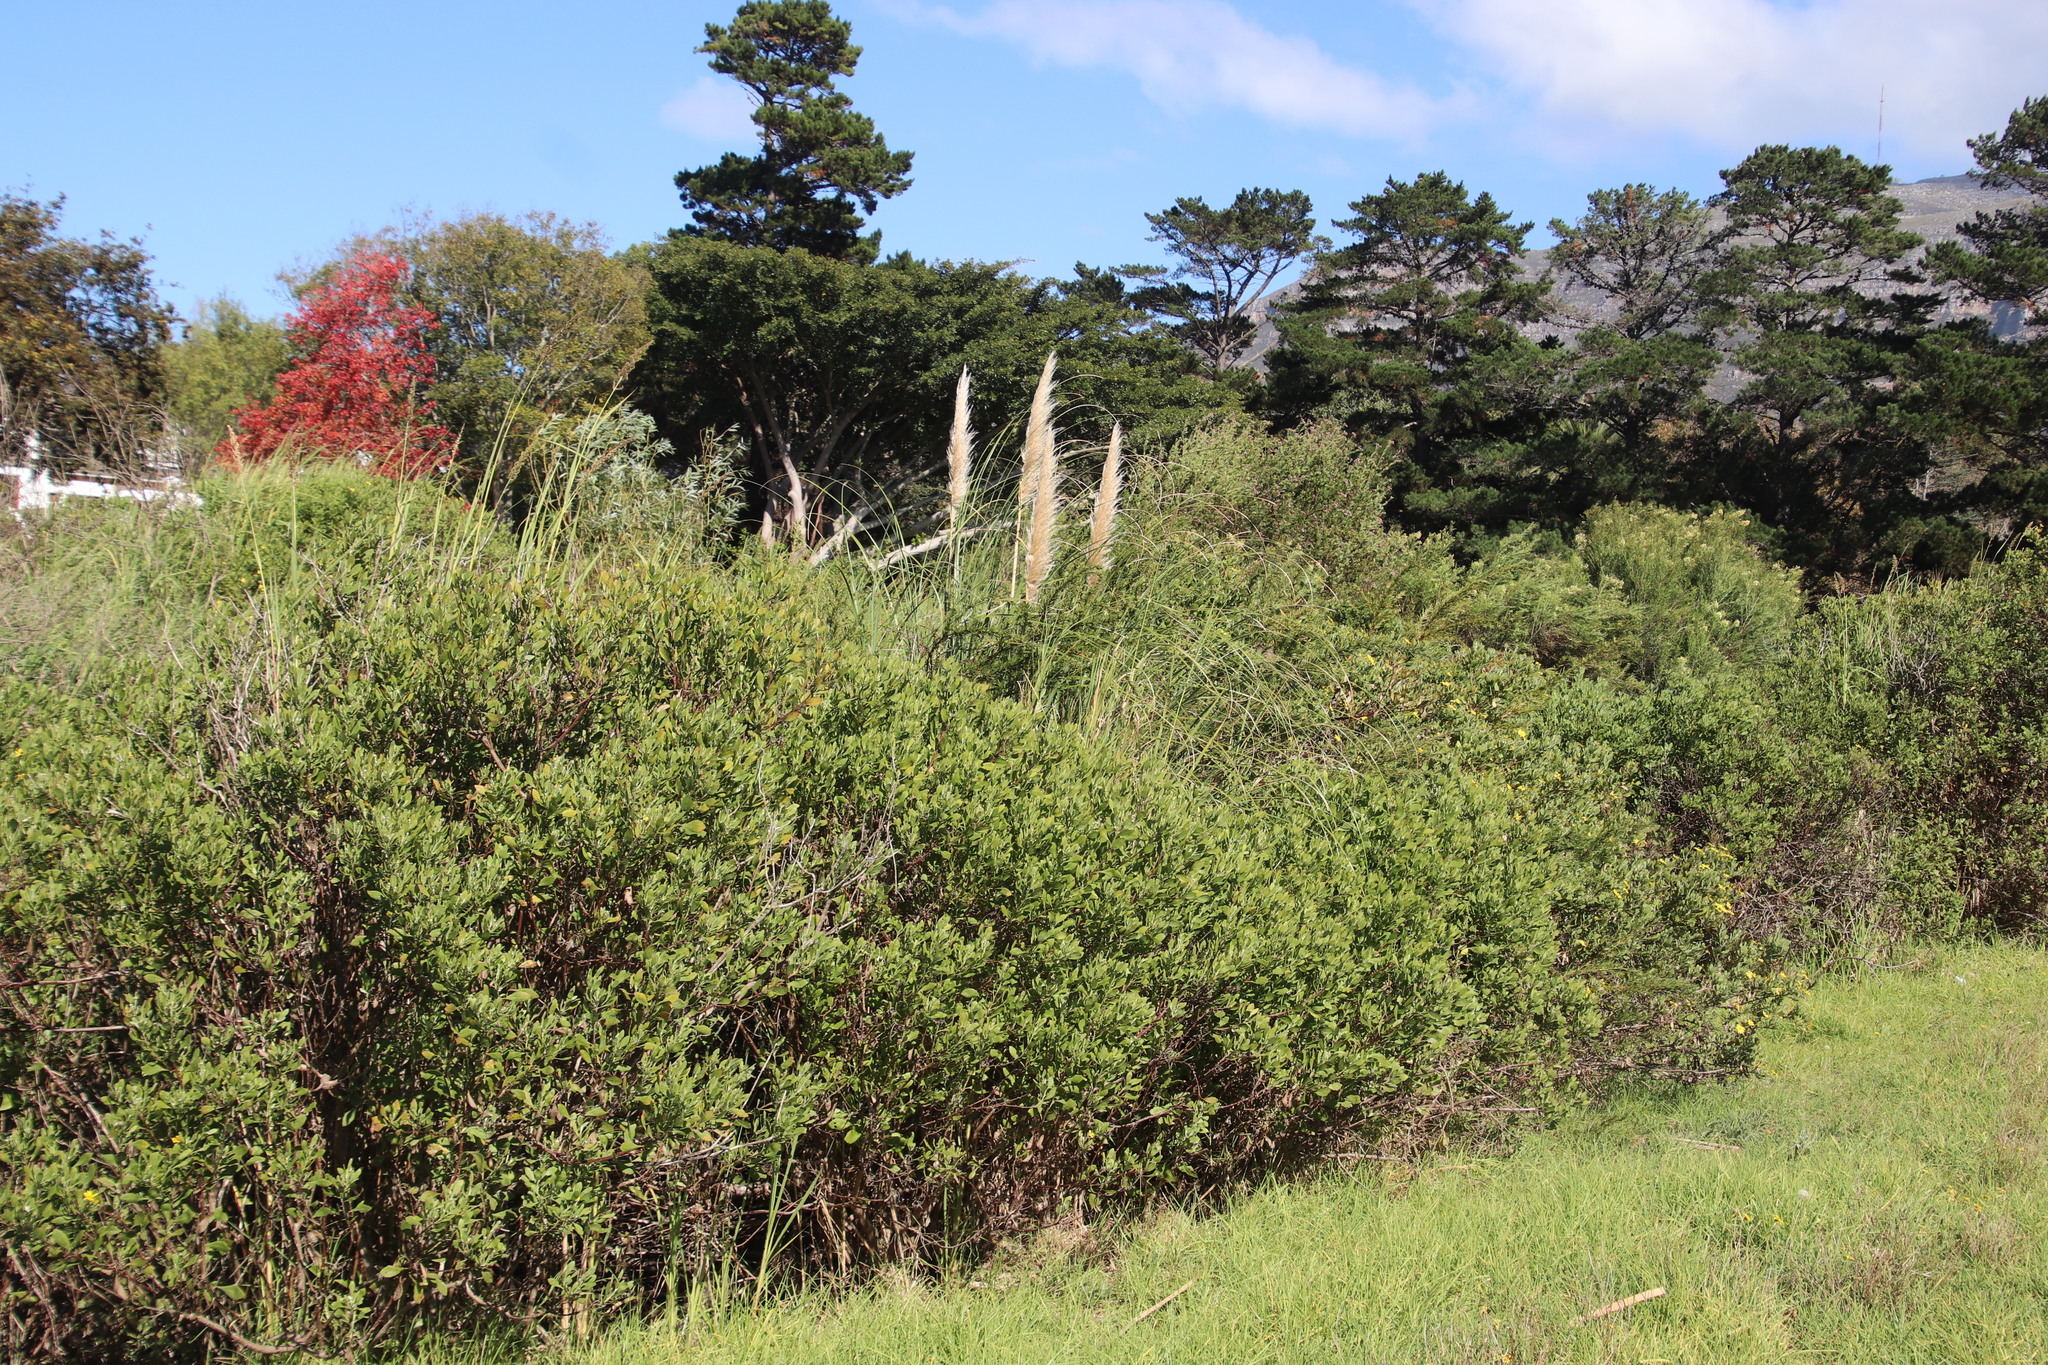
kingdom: Plantae
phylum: Tracheophyta
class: Liliopsida
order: Poales
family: Poaceae
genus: Cortaderia
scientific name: Cortaderia selloana
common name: Uruguayan pampas grass
